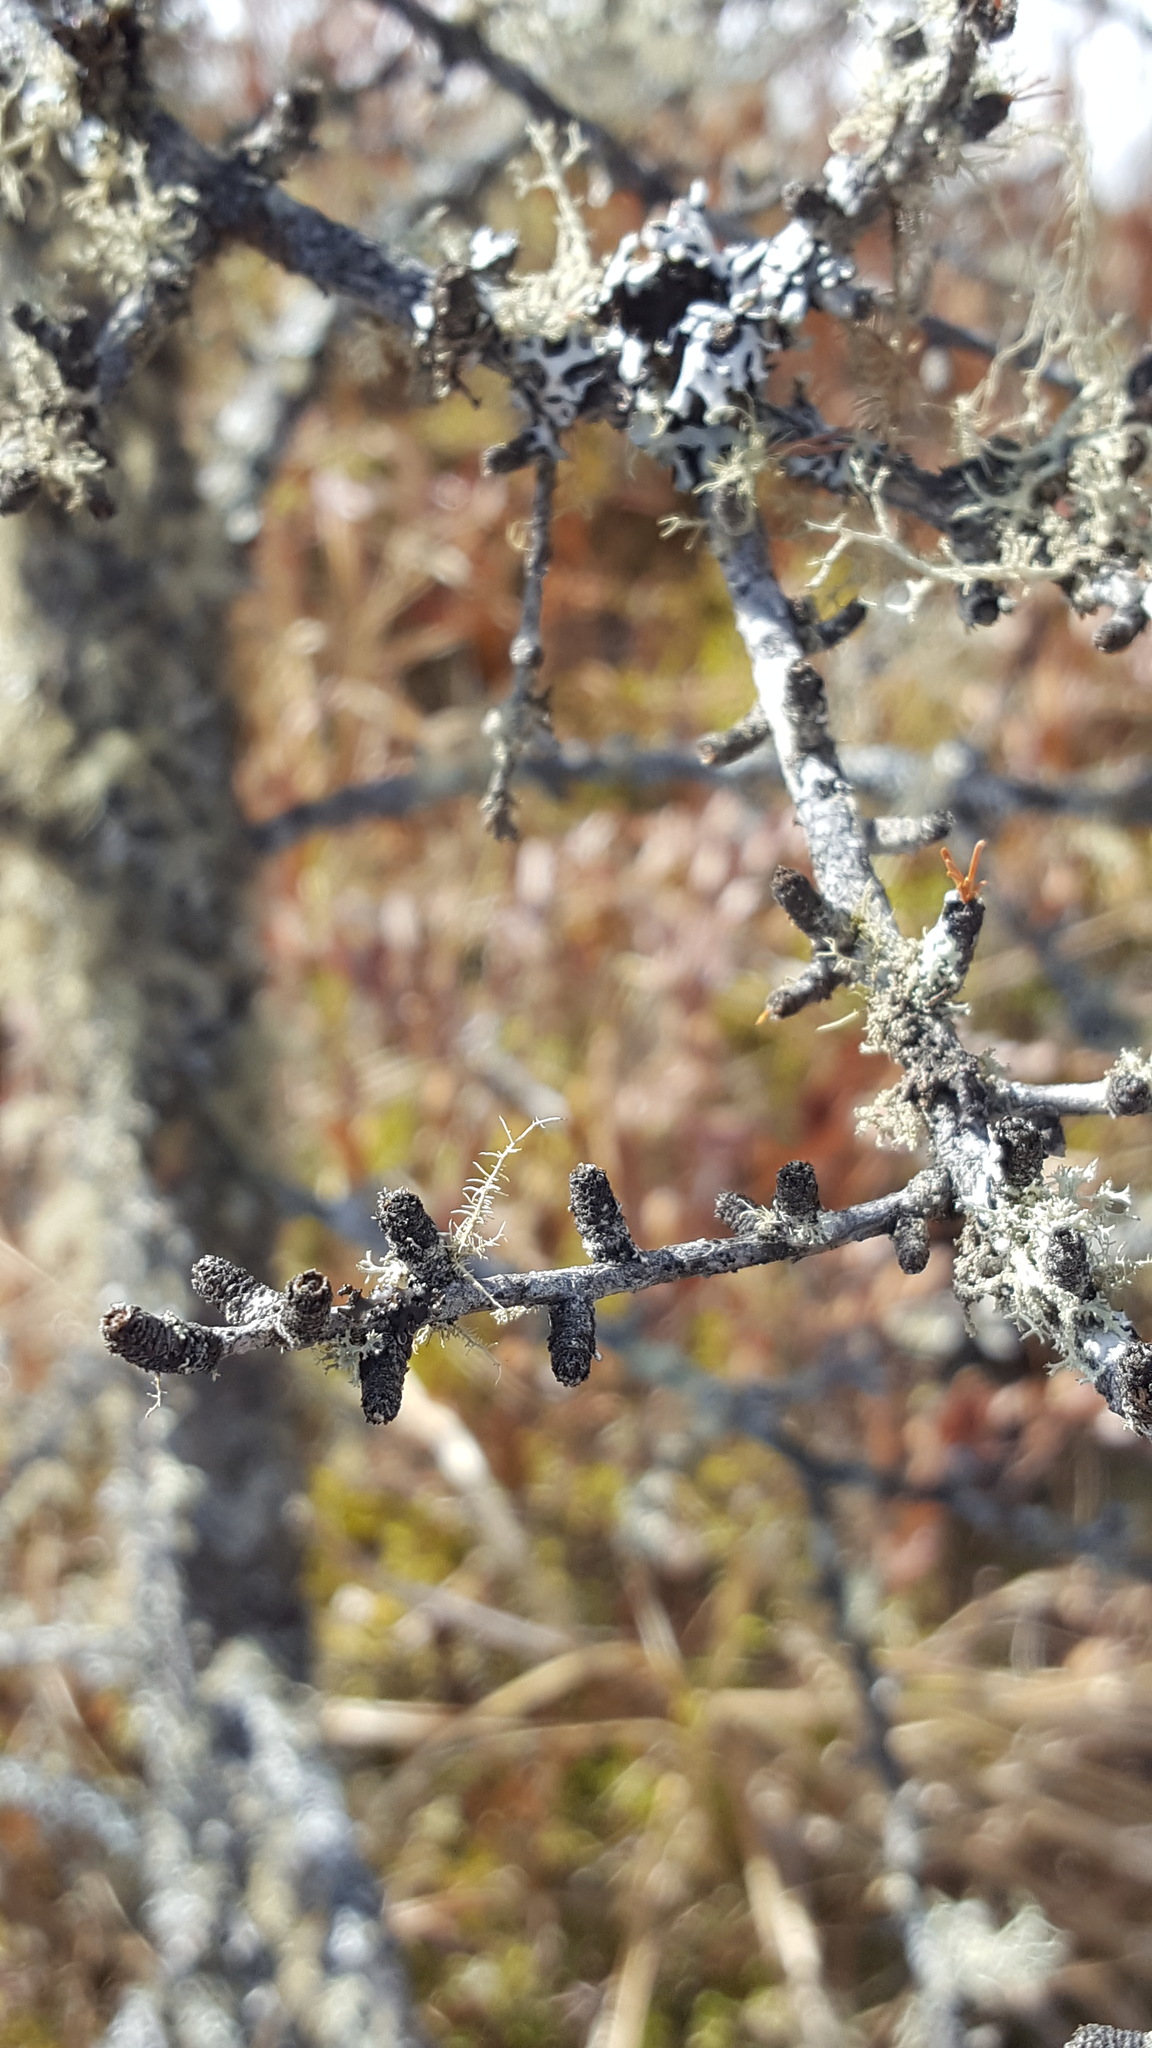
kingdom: Plantae
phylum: Tracheophyta
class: Pinopsida
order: Pinales
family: Pinaceae
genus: Larix
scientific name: Larix laricina
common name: American larch
